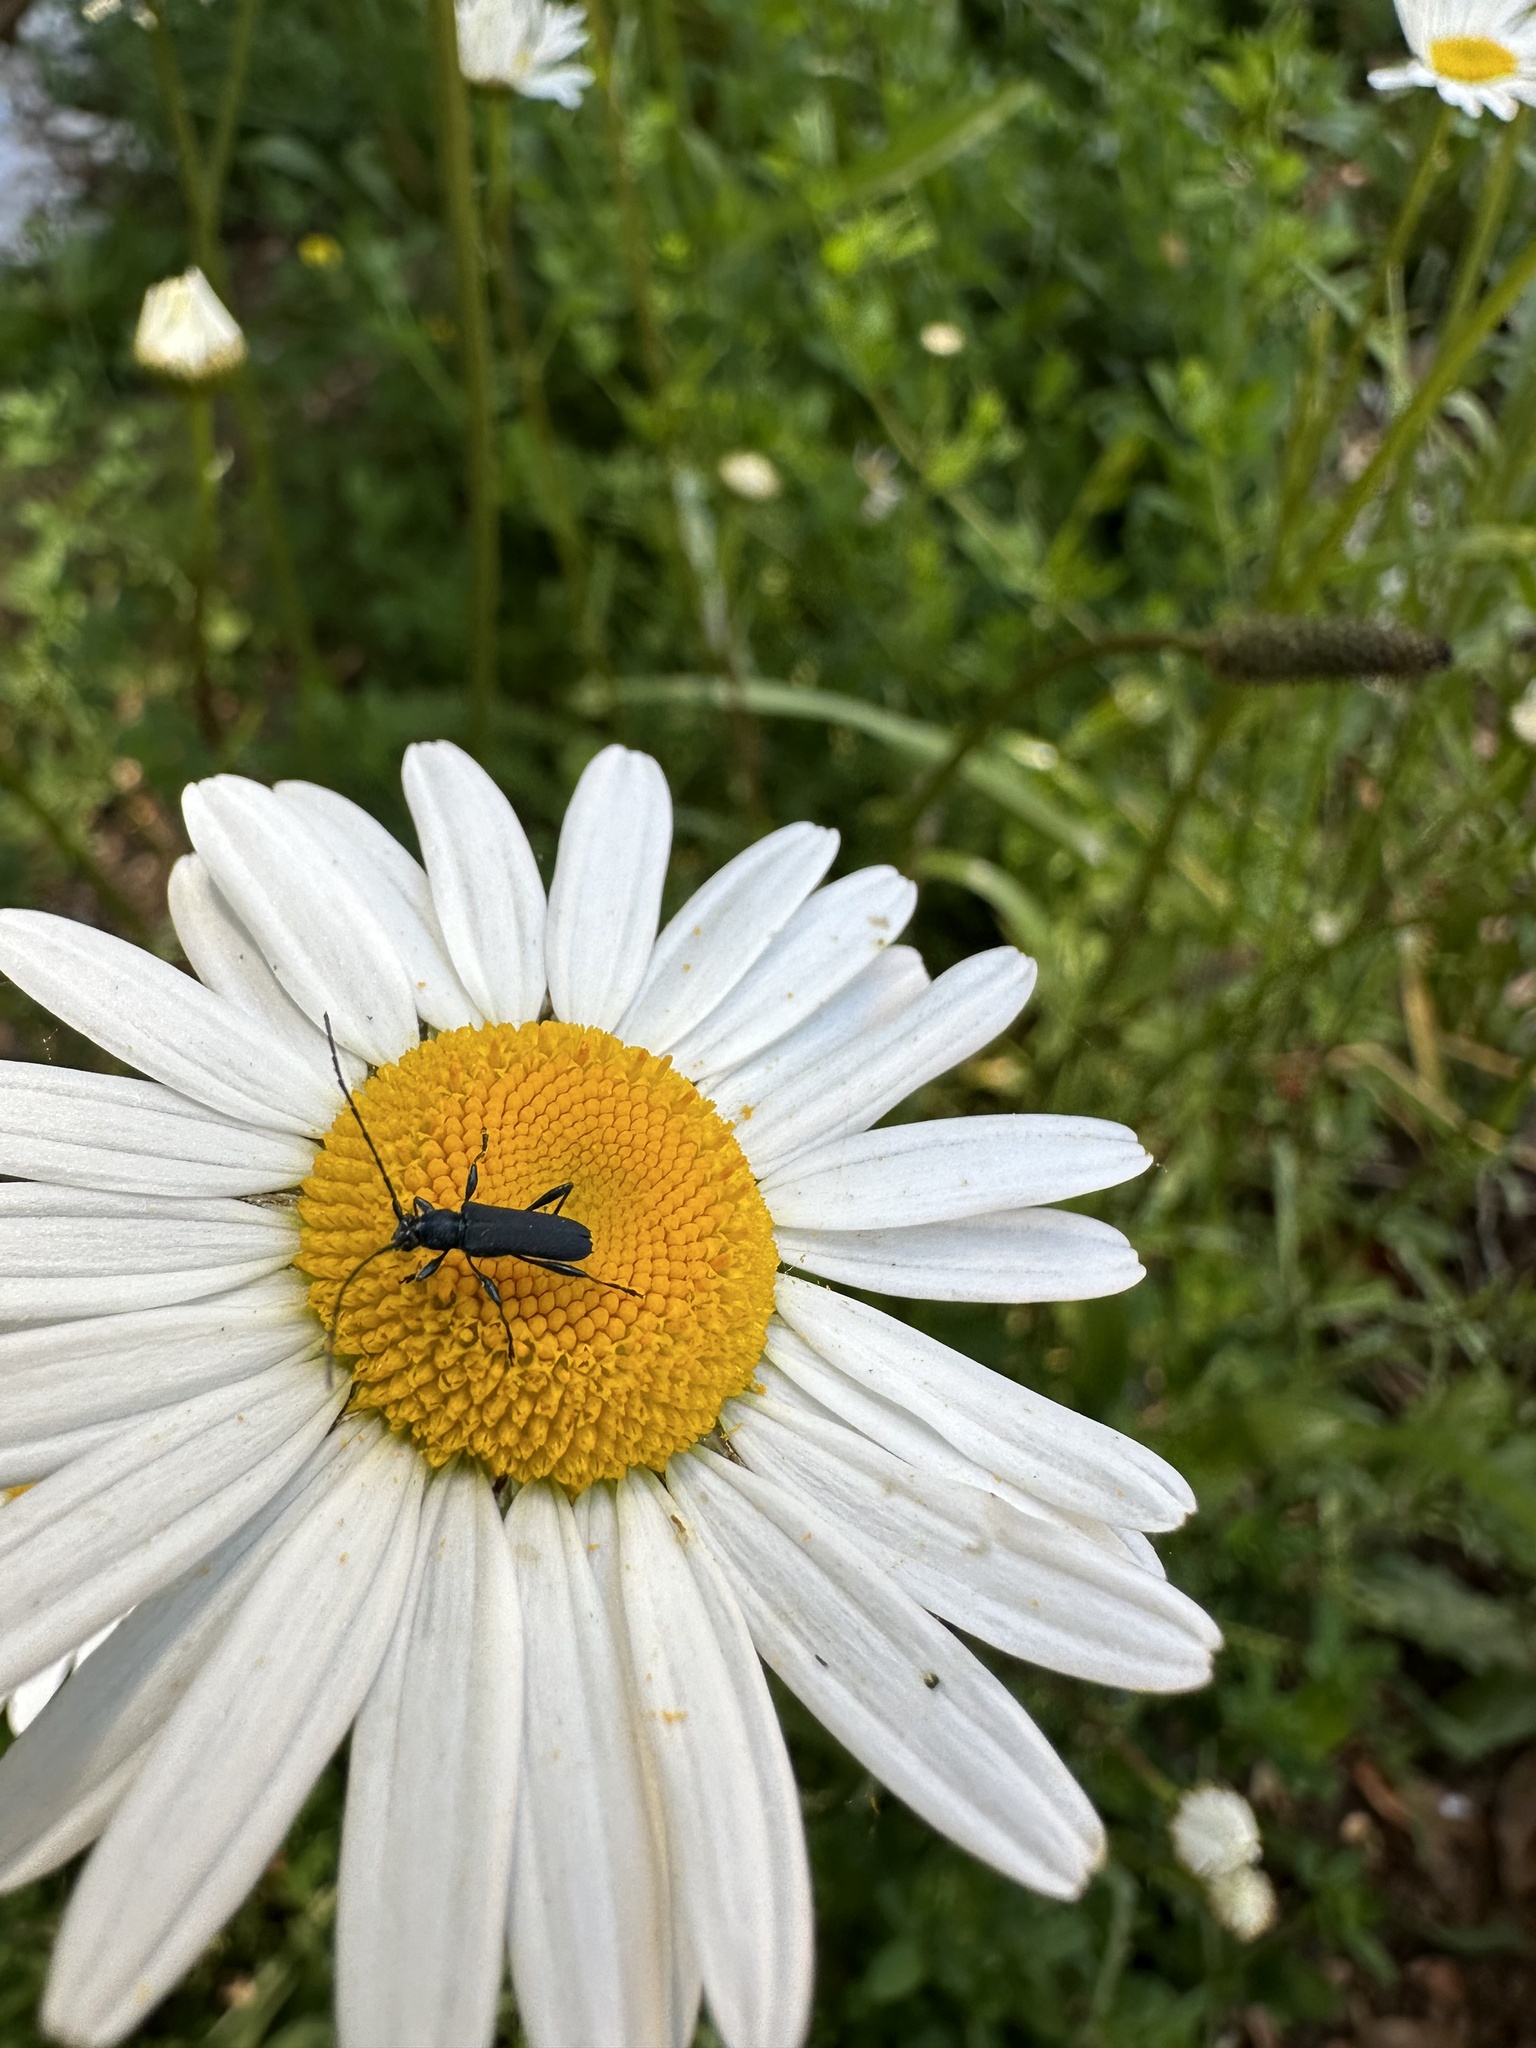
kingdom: Animalia
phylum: Arthropoda
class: Insecta
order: Coleoptera
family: Cerambycidae
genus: Eryphus
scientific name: Eryphus laetus
